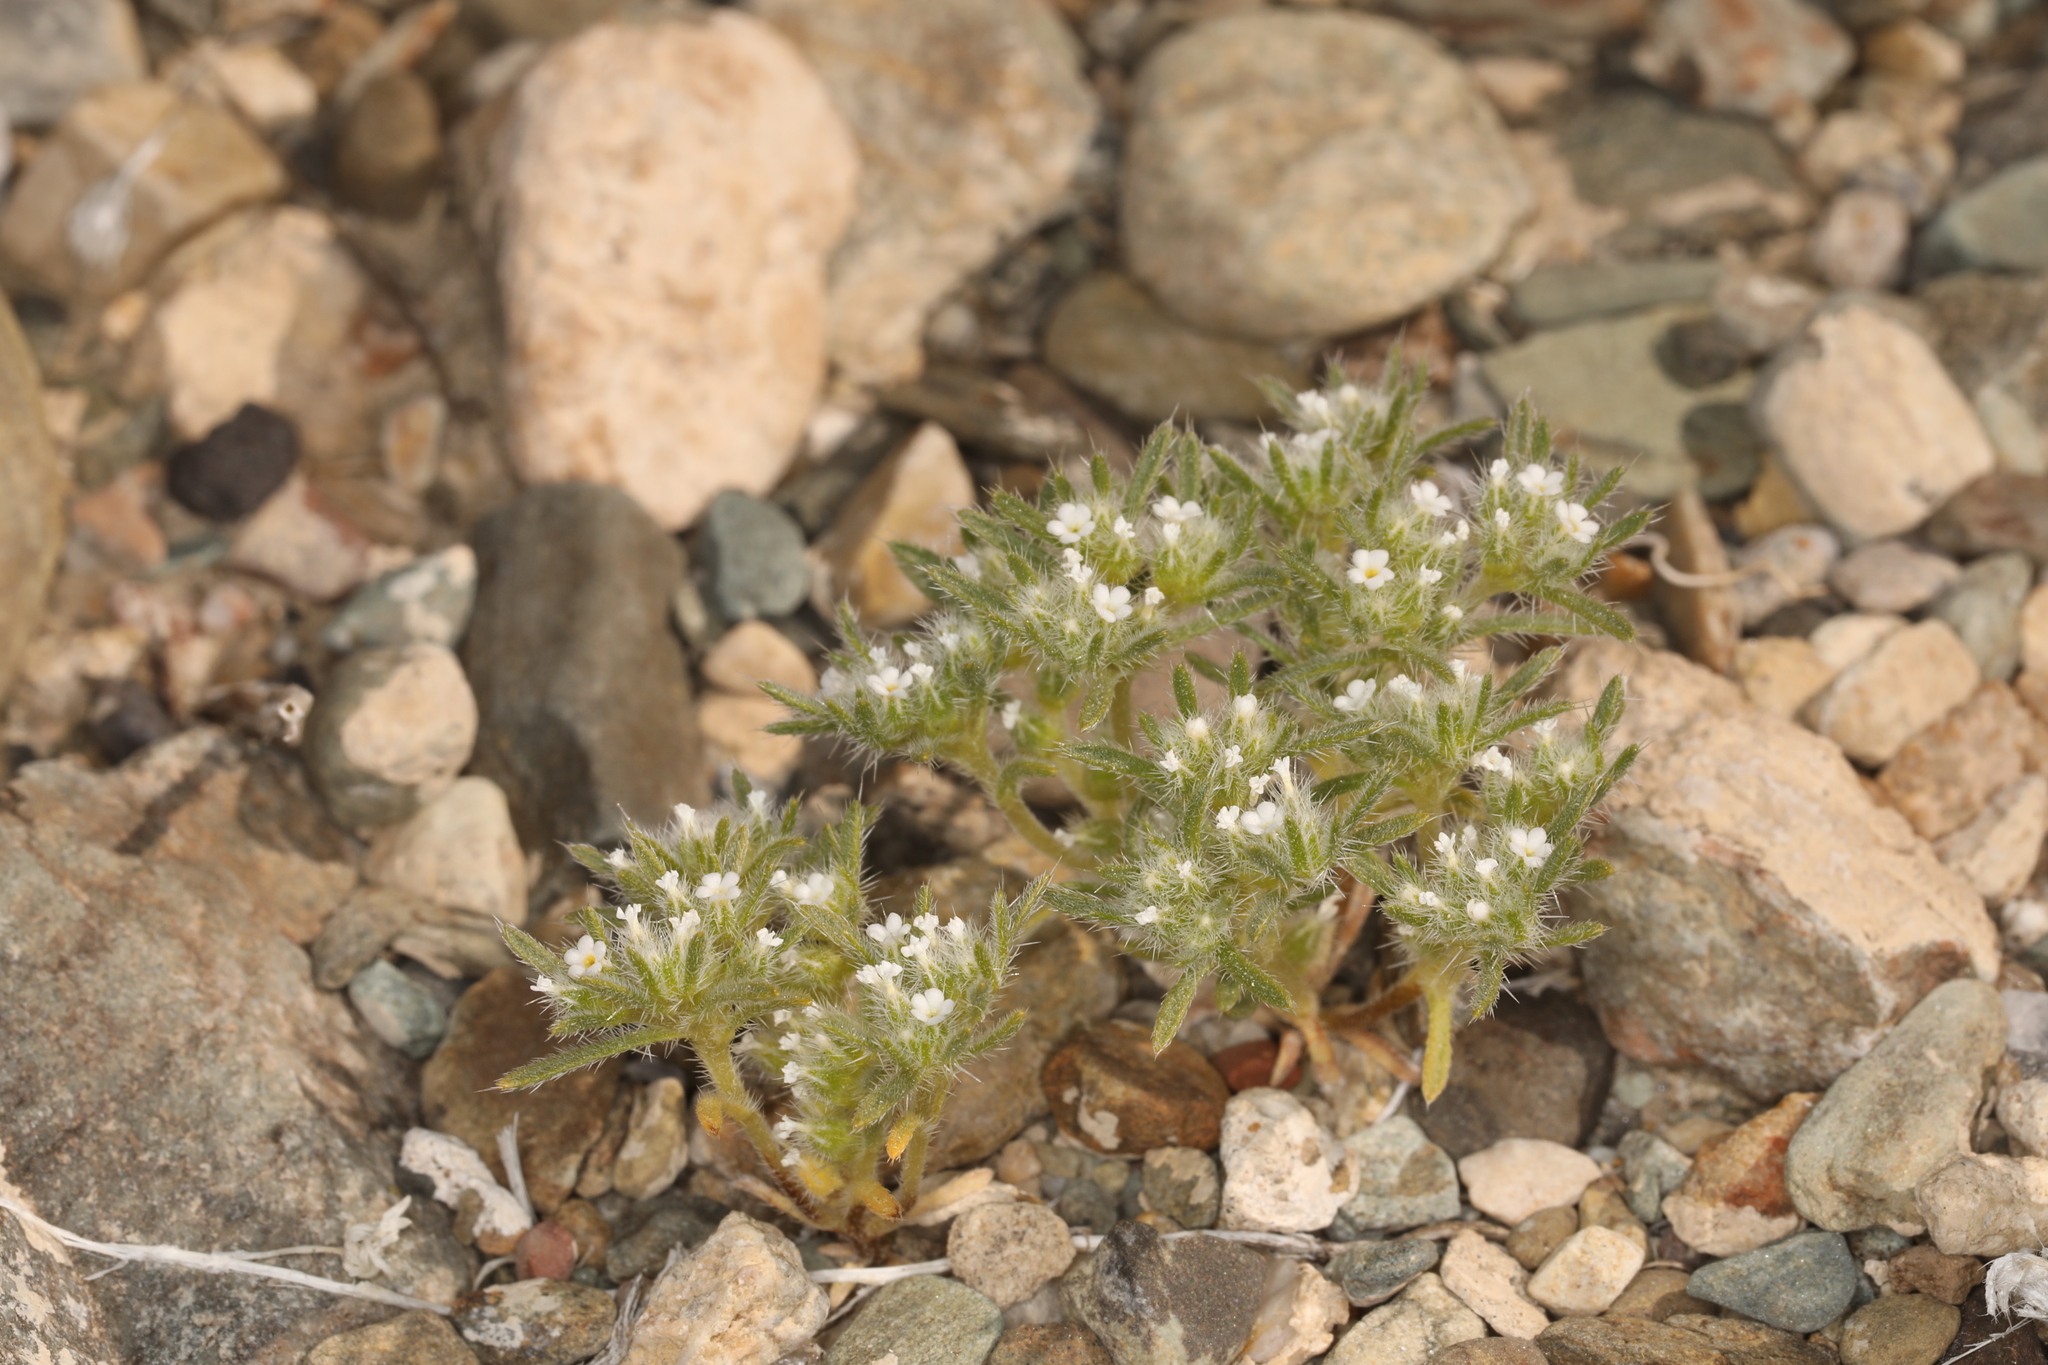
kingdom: Plantae
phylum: Tracheophyta
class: Magnoliopsida
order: Boraginales
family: Boraginaceae
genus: Greeneocharis
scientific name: Greeneocharis circumscissa
